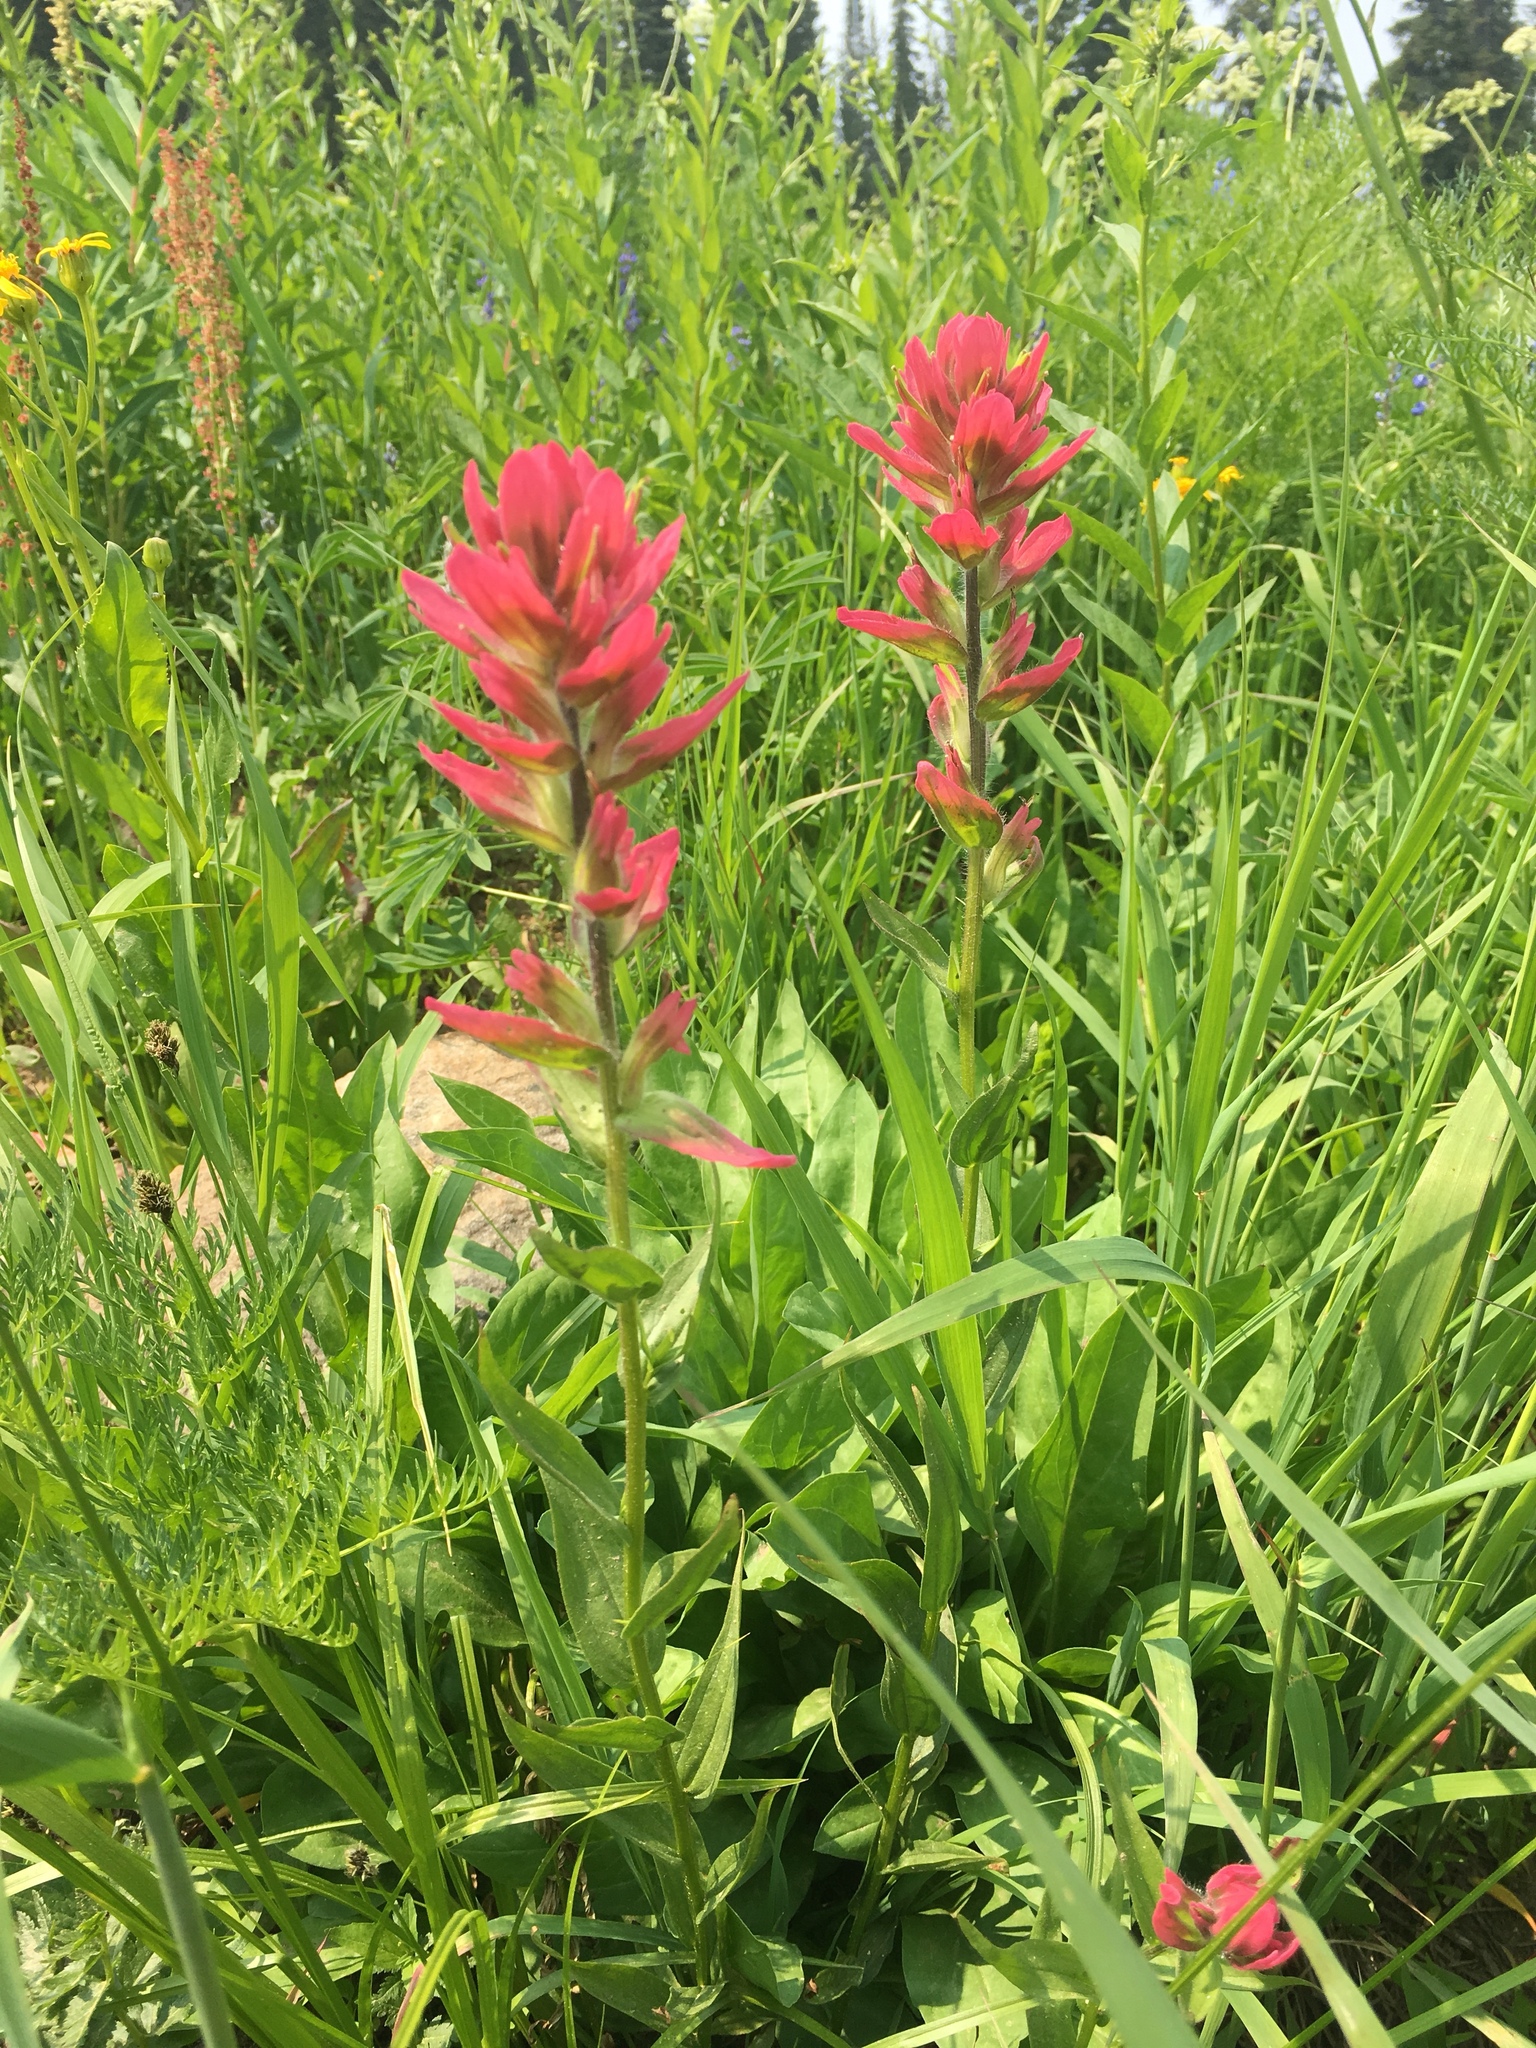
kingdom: Plantae
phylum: Tracheophyta
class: Magnoliopsida
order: Lamiales
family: Orobanchaceae
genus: Castilleja
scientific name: Castilleja rhexifolia
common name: Rocky mountain paintbrush
